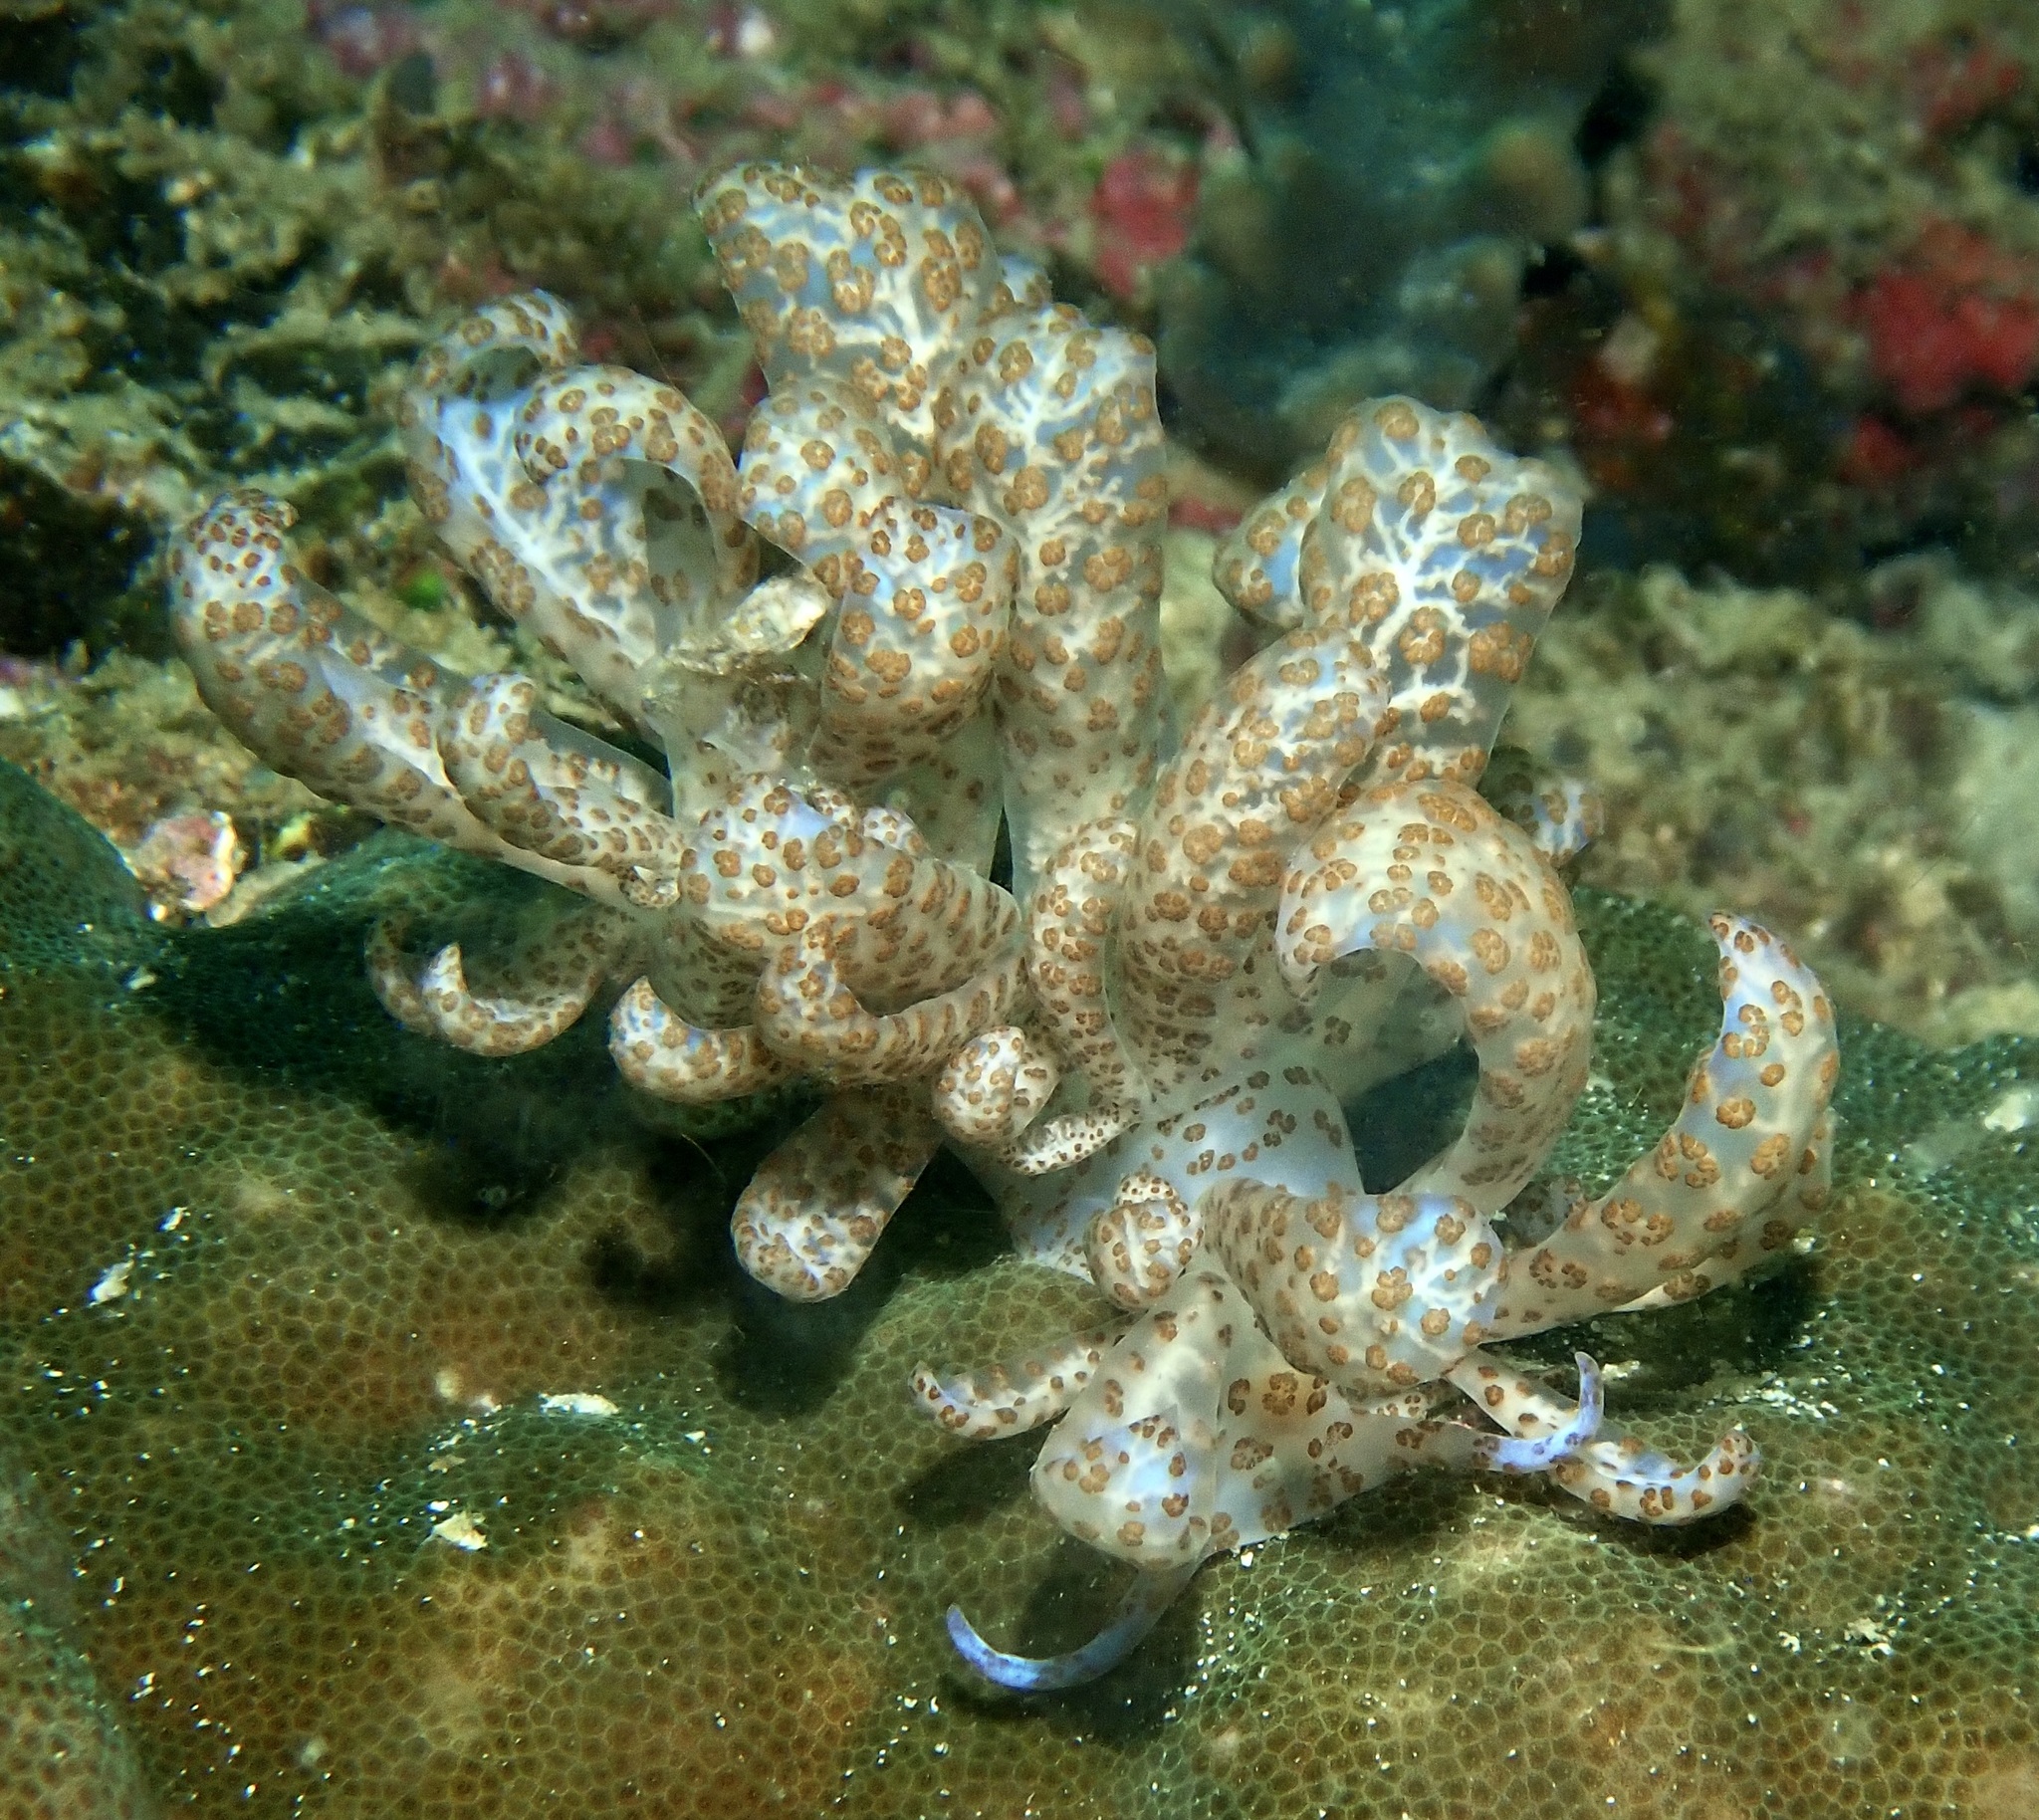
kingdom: Animalia
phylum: Mollusca
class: Gastropoda
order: Nudibranchia
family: Myrrhinidae
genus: Phyllodesmium
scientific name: Phyllodesmium longicirrum
